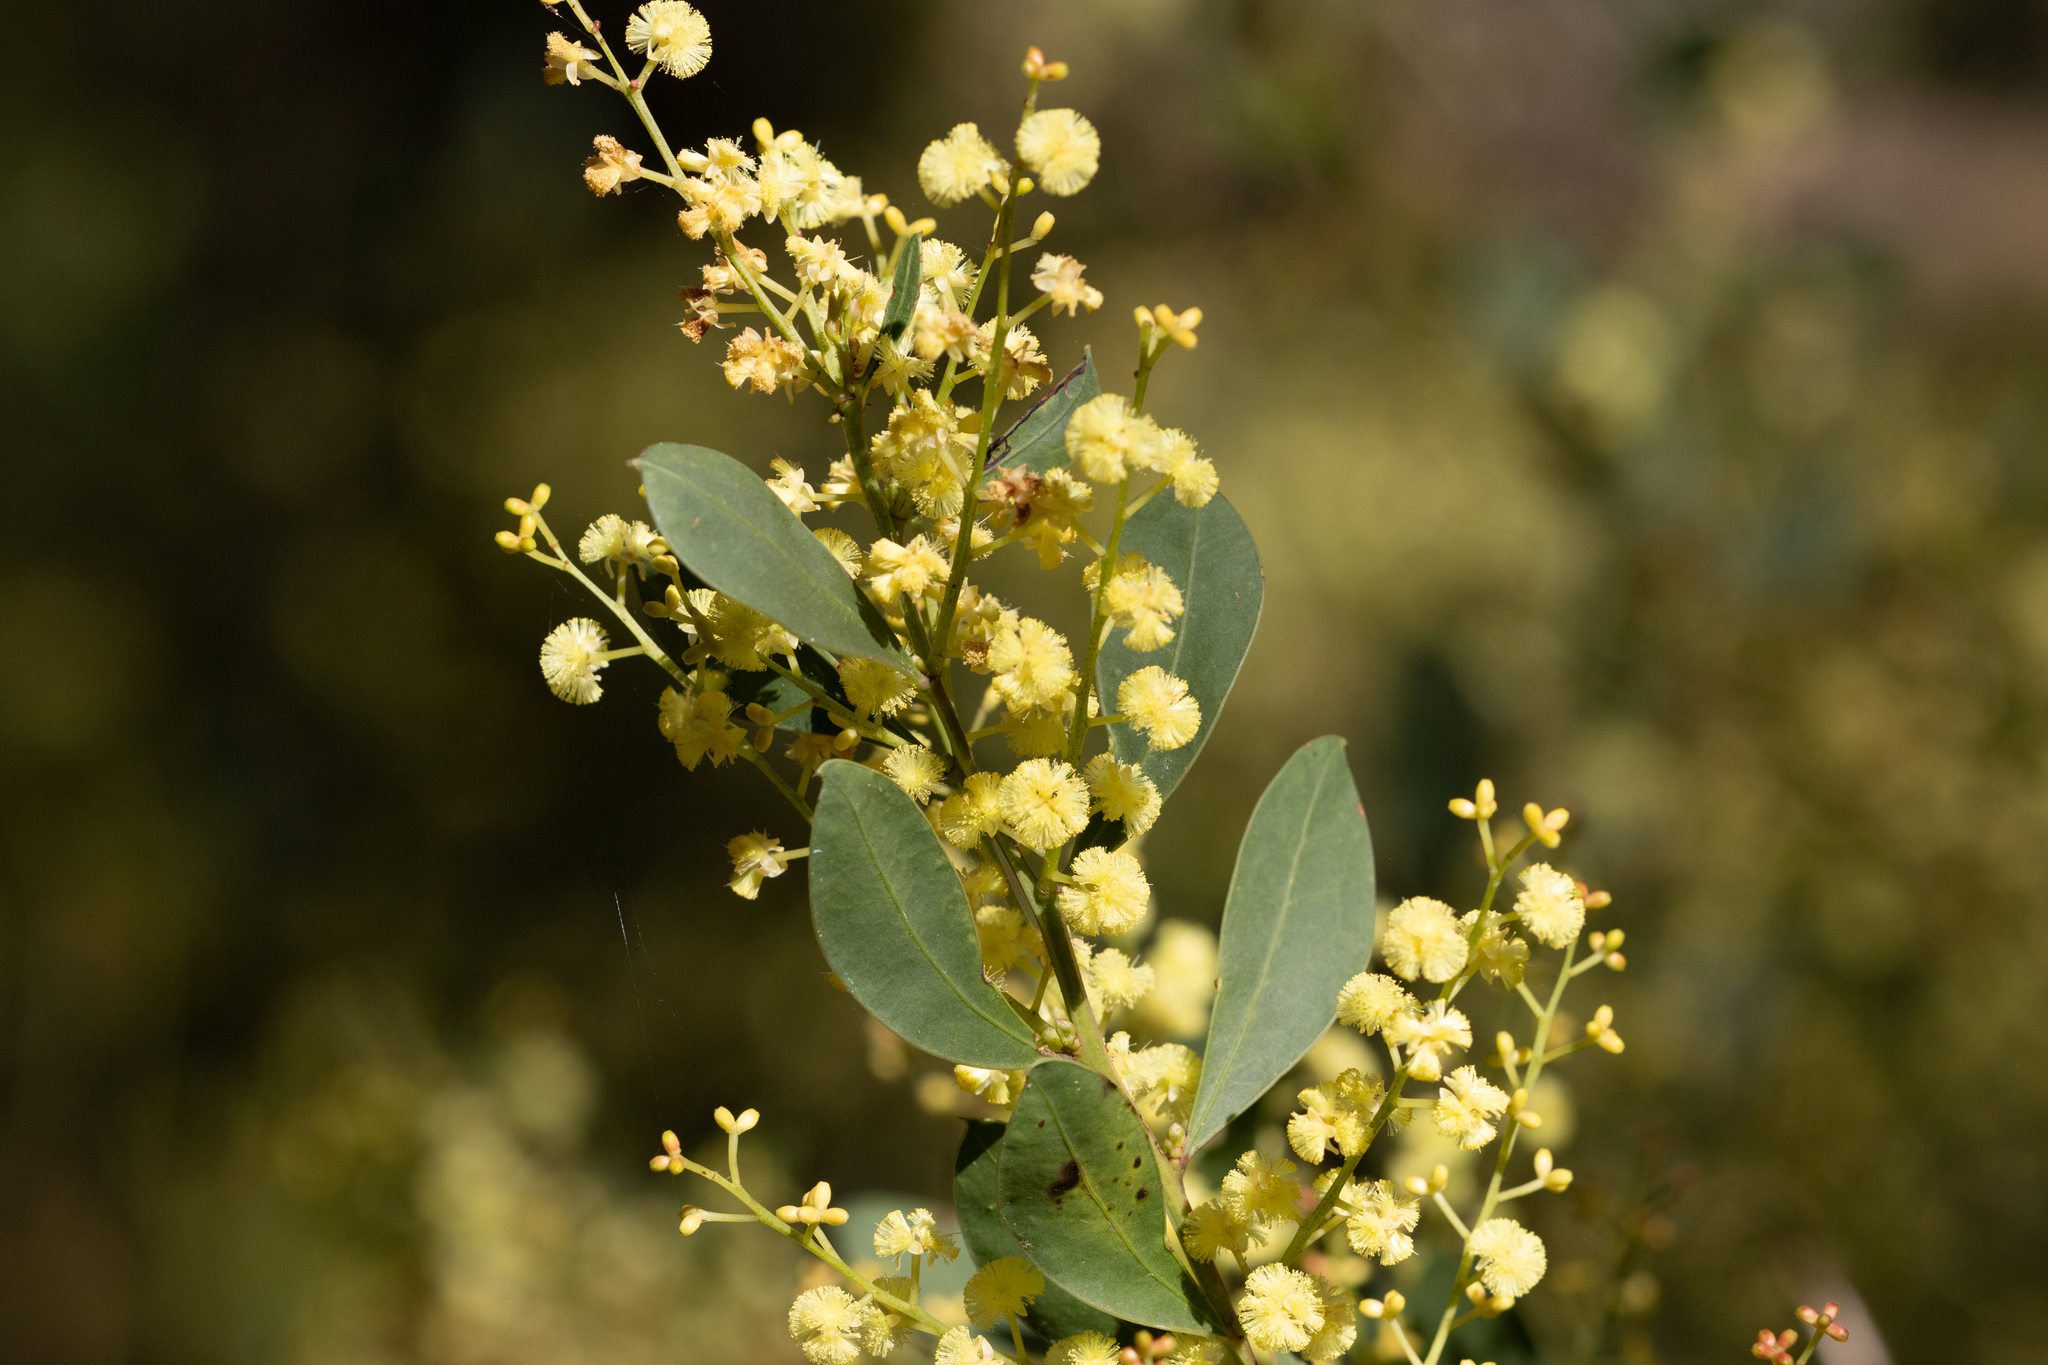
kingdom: Plantae
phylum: Tracheophyta
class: Magnoliopsida
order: Fabales
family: Fabaceae
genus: Acacia
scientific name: Acacia myrtifolia
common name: Myrtle wattle
